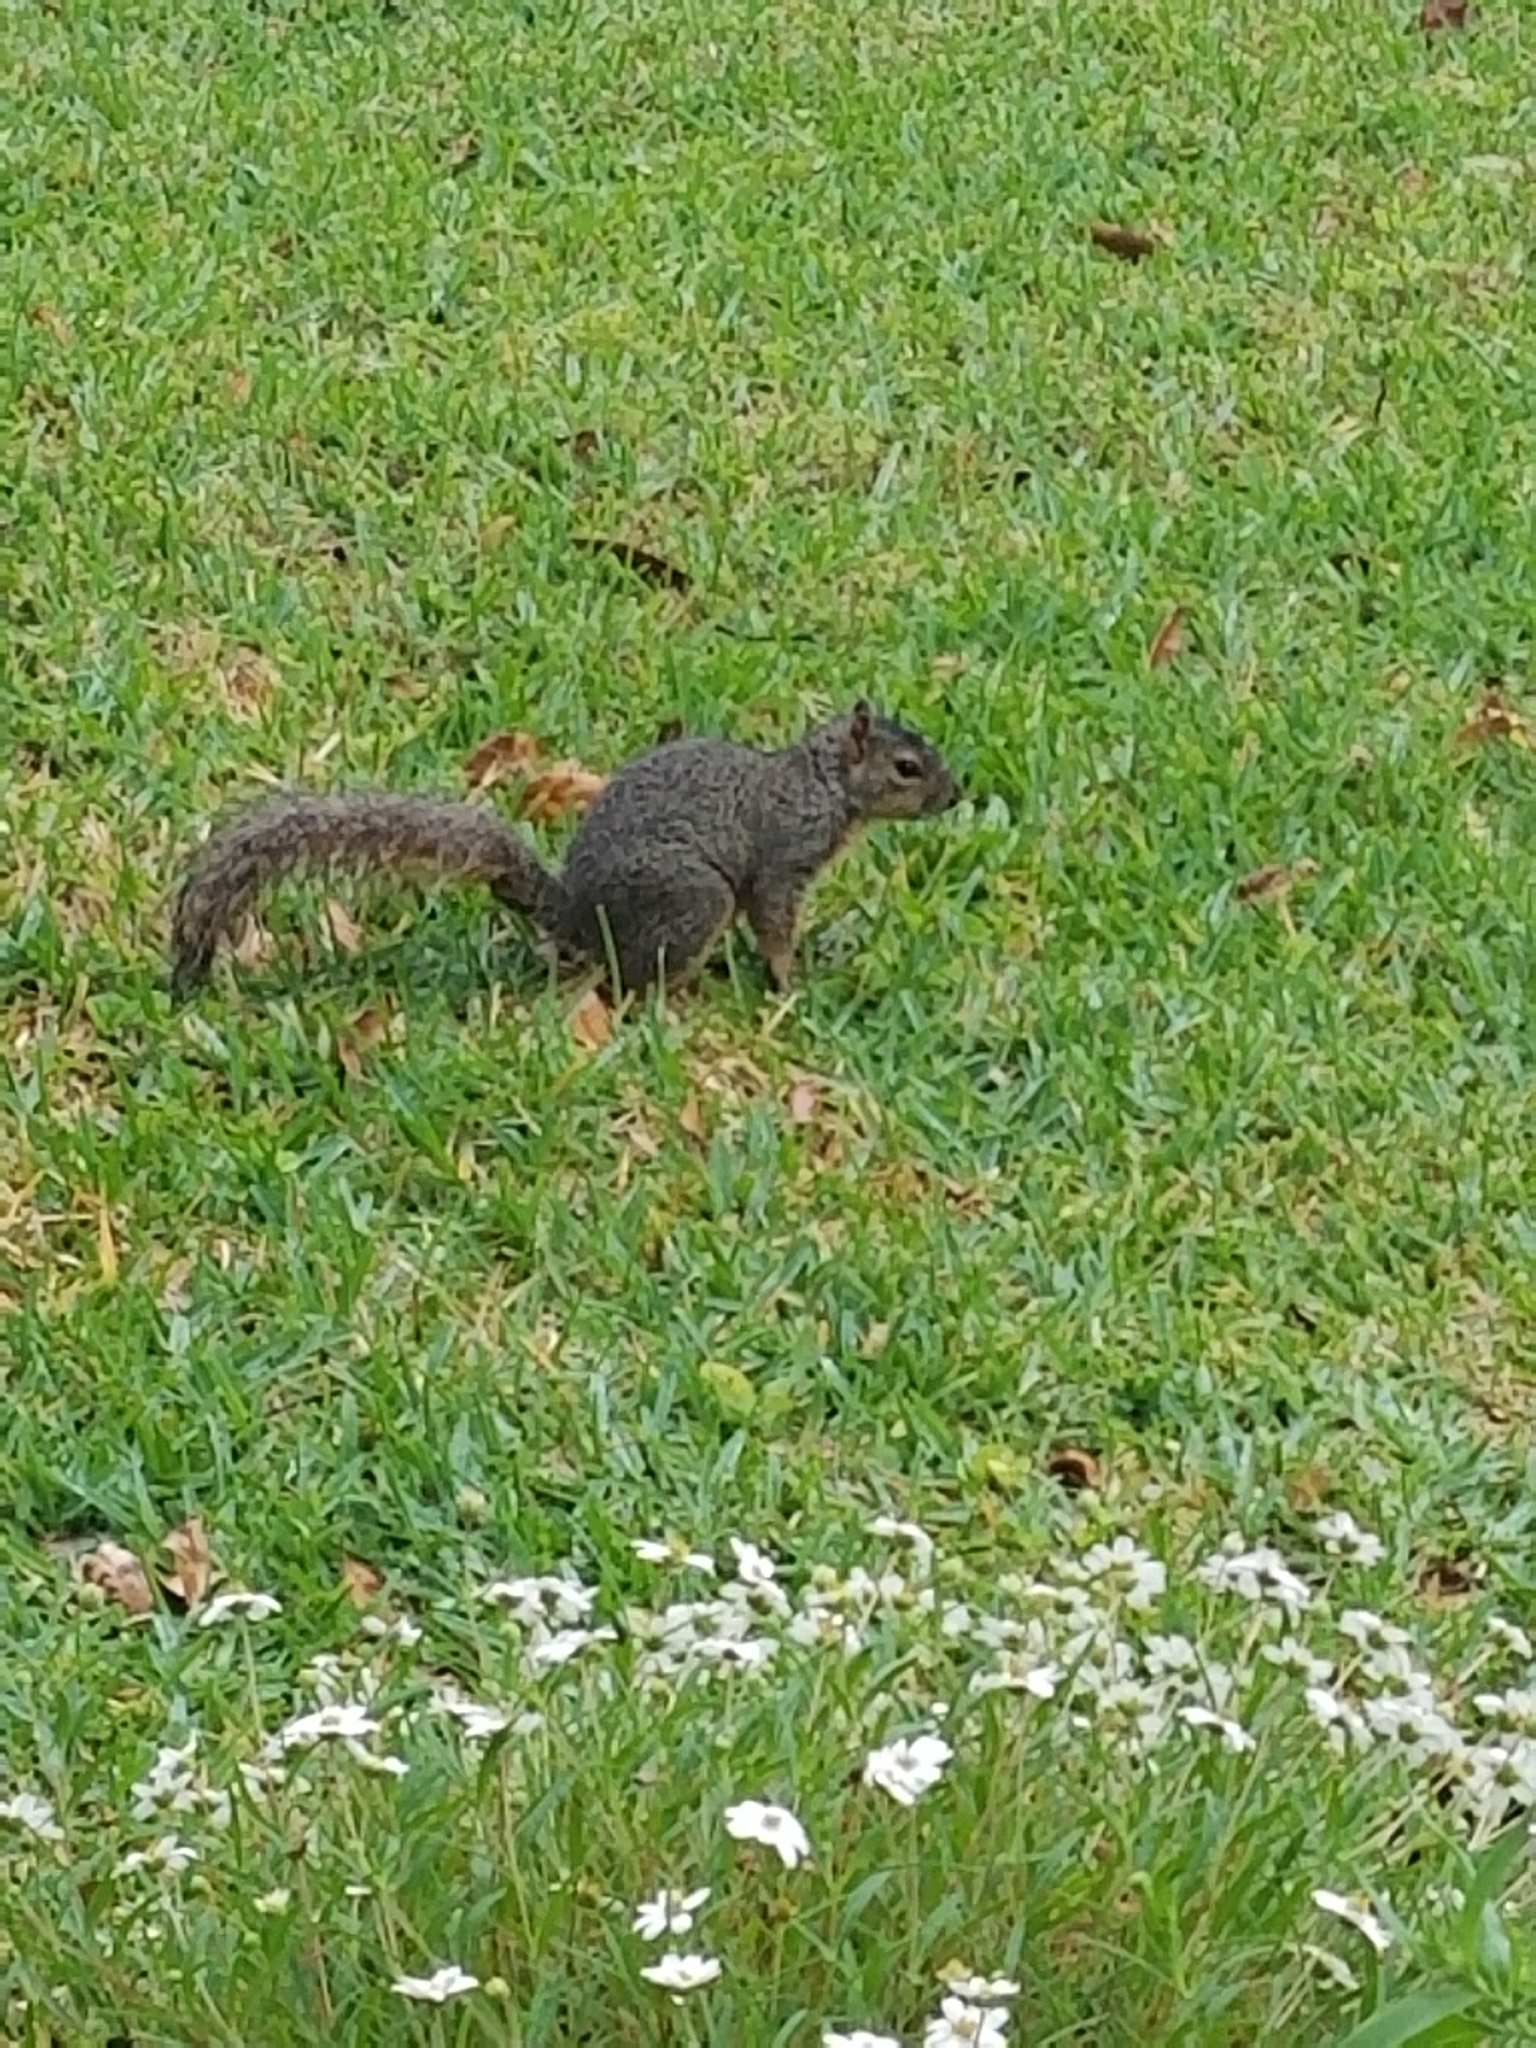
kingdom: Animalia
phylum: Chordata
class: Mammalia
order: Rodentia
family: Sciuridae
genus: Sciurus
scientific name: Sciurus niger
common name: Fox squirrel
